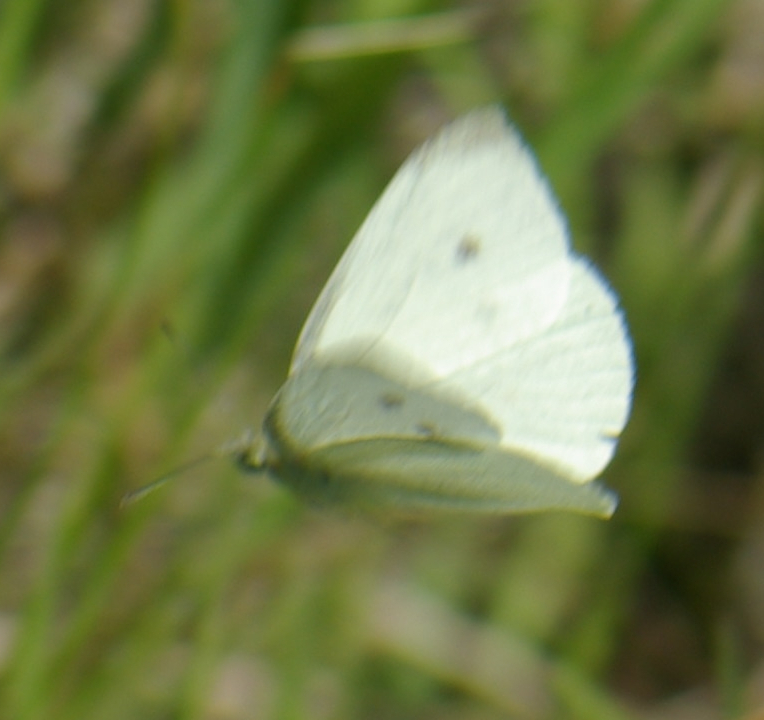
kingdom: Animalia
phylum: Arthropoda
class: Insecta
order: Lepidoptera
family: Pieridae
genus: Pieris
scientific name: Pieris rapae
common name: Small white
